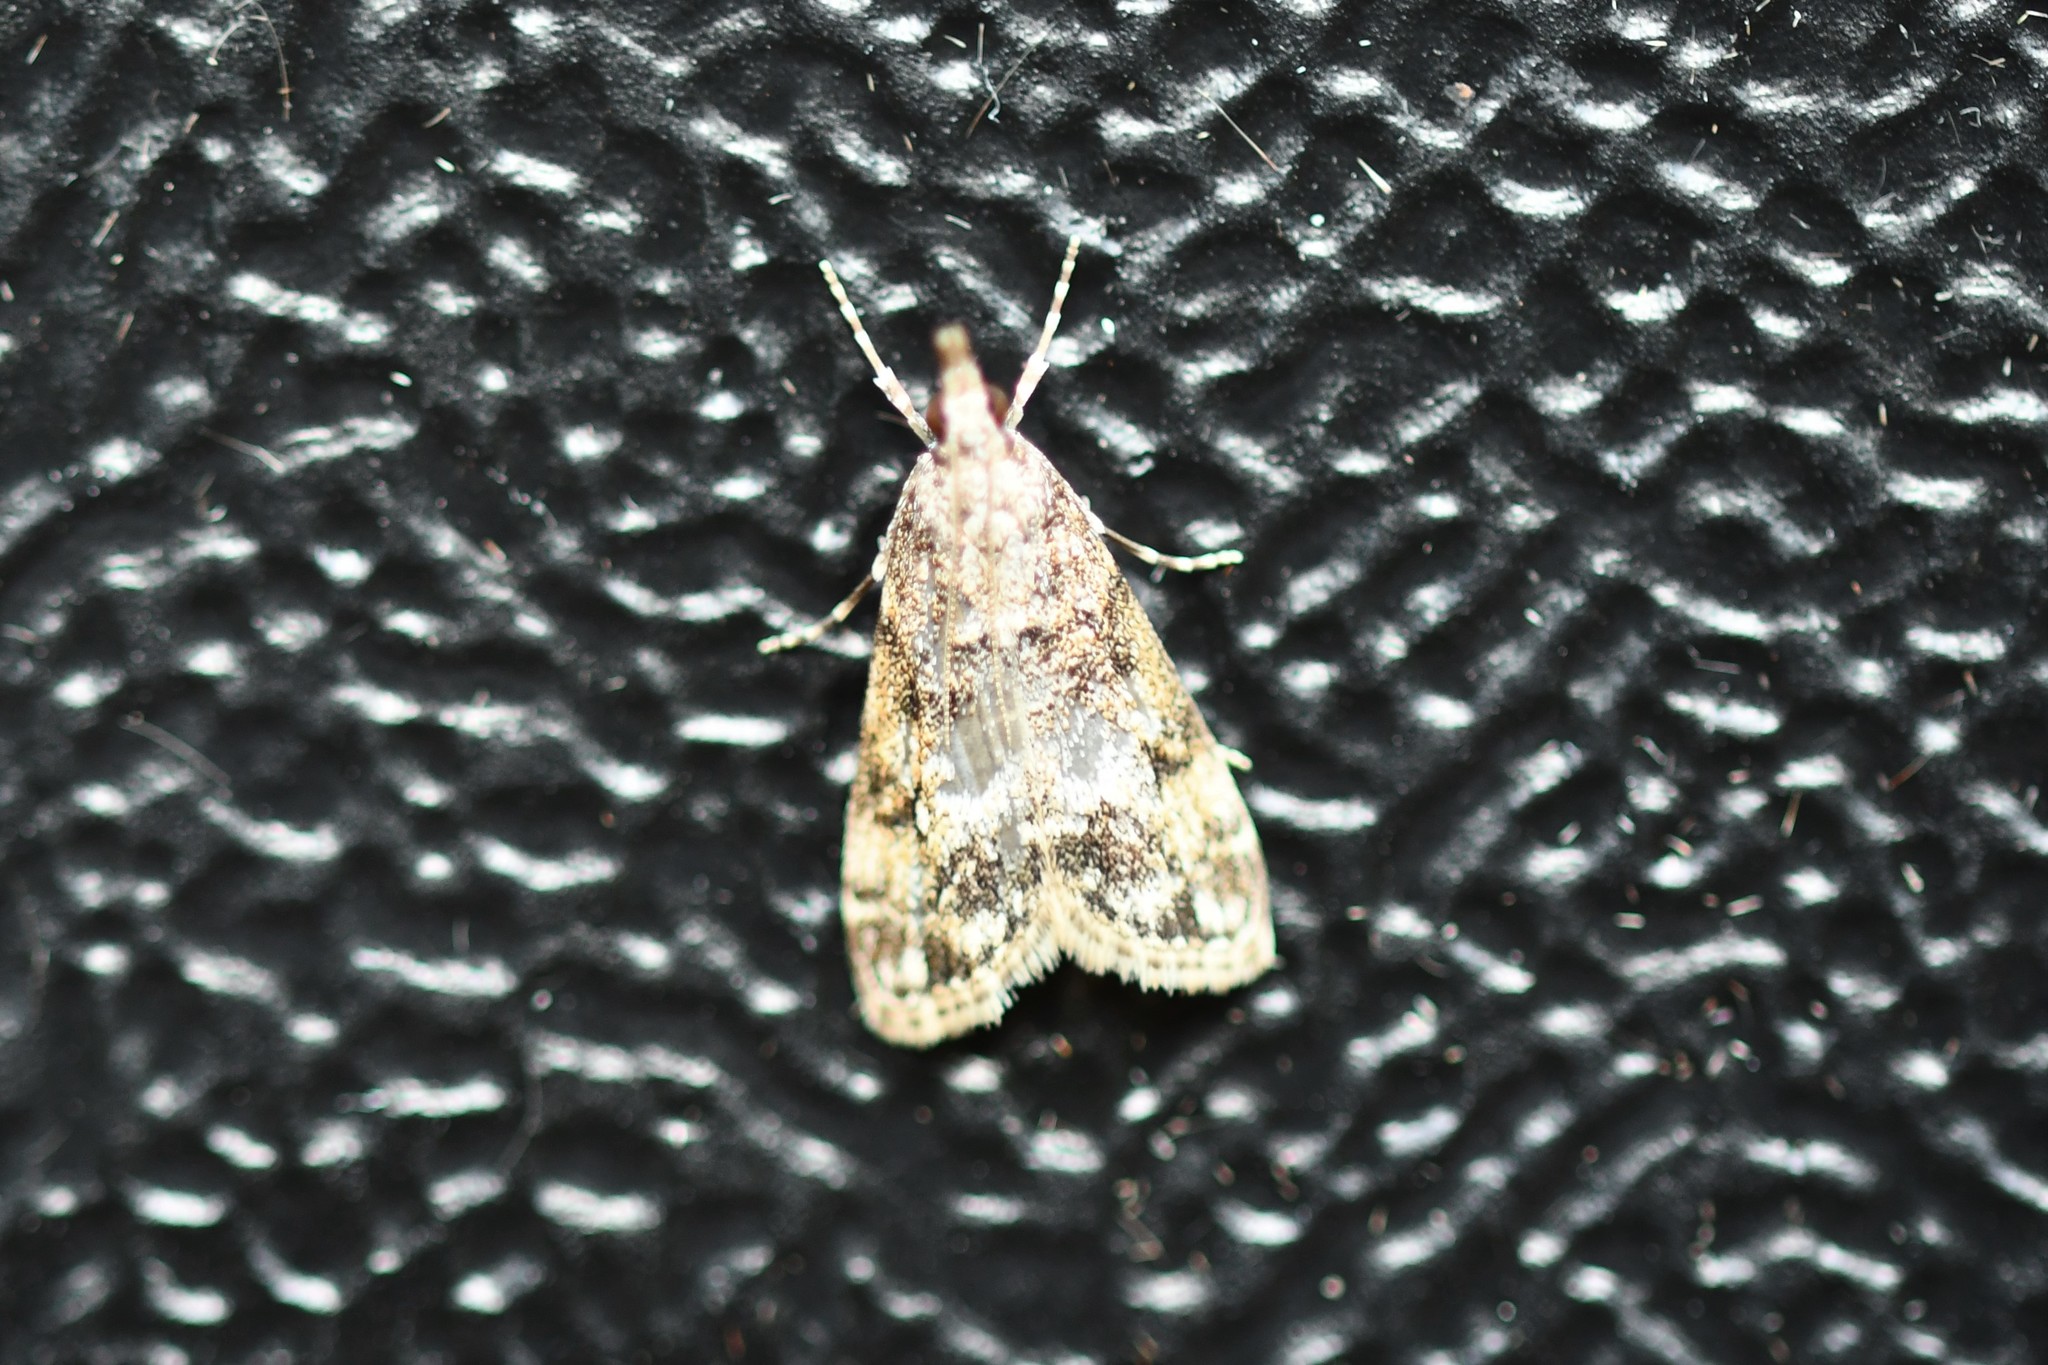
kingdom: Animalia
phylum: Arthropoda
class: Insecta
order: Lepidoptera
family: Crambidae
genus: Eudonia
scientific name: Eudonia lacustrata
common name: Little grey
